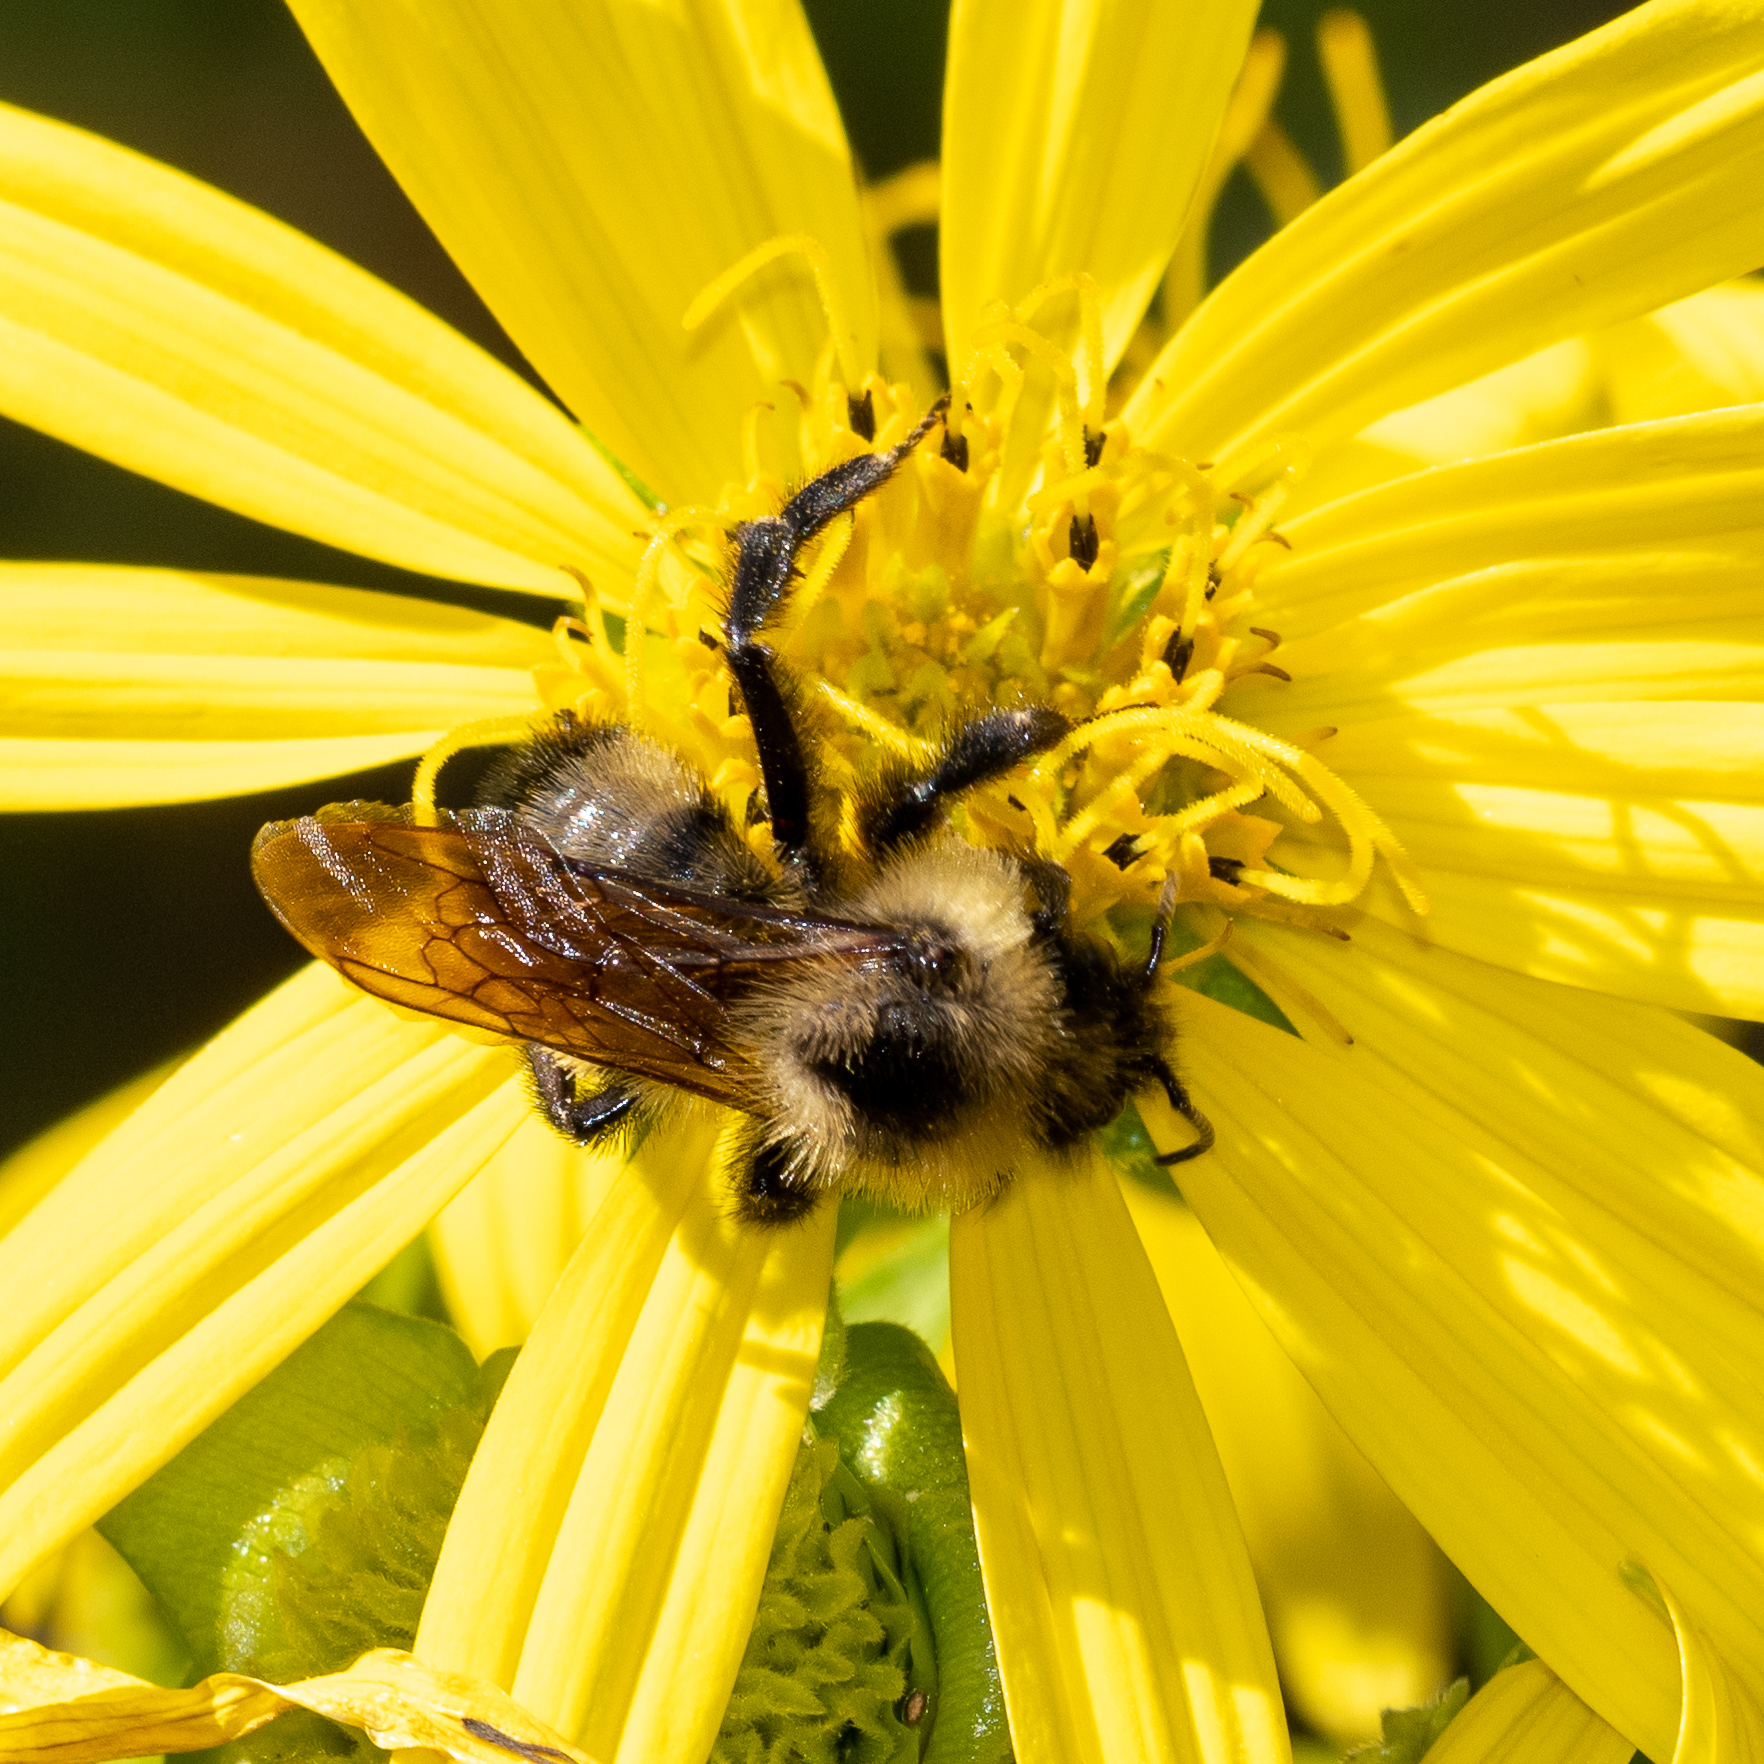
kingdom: Animalia
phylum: Arthropoda
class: Insecta
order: Hymenoptera
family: Apidae
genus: Bombus
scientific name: Bombus citrinus
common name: Lemon cuckoo bumble bee
